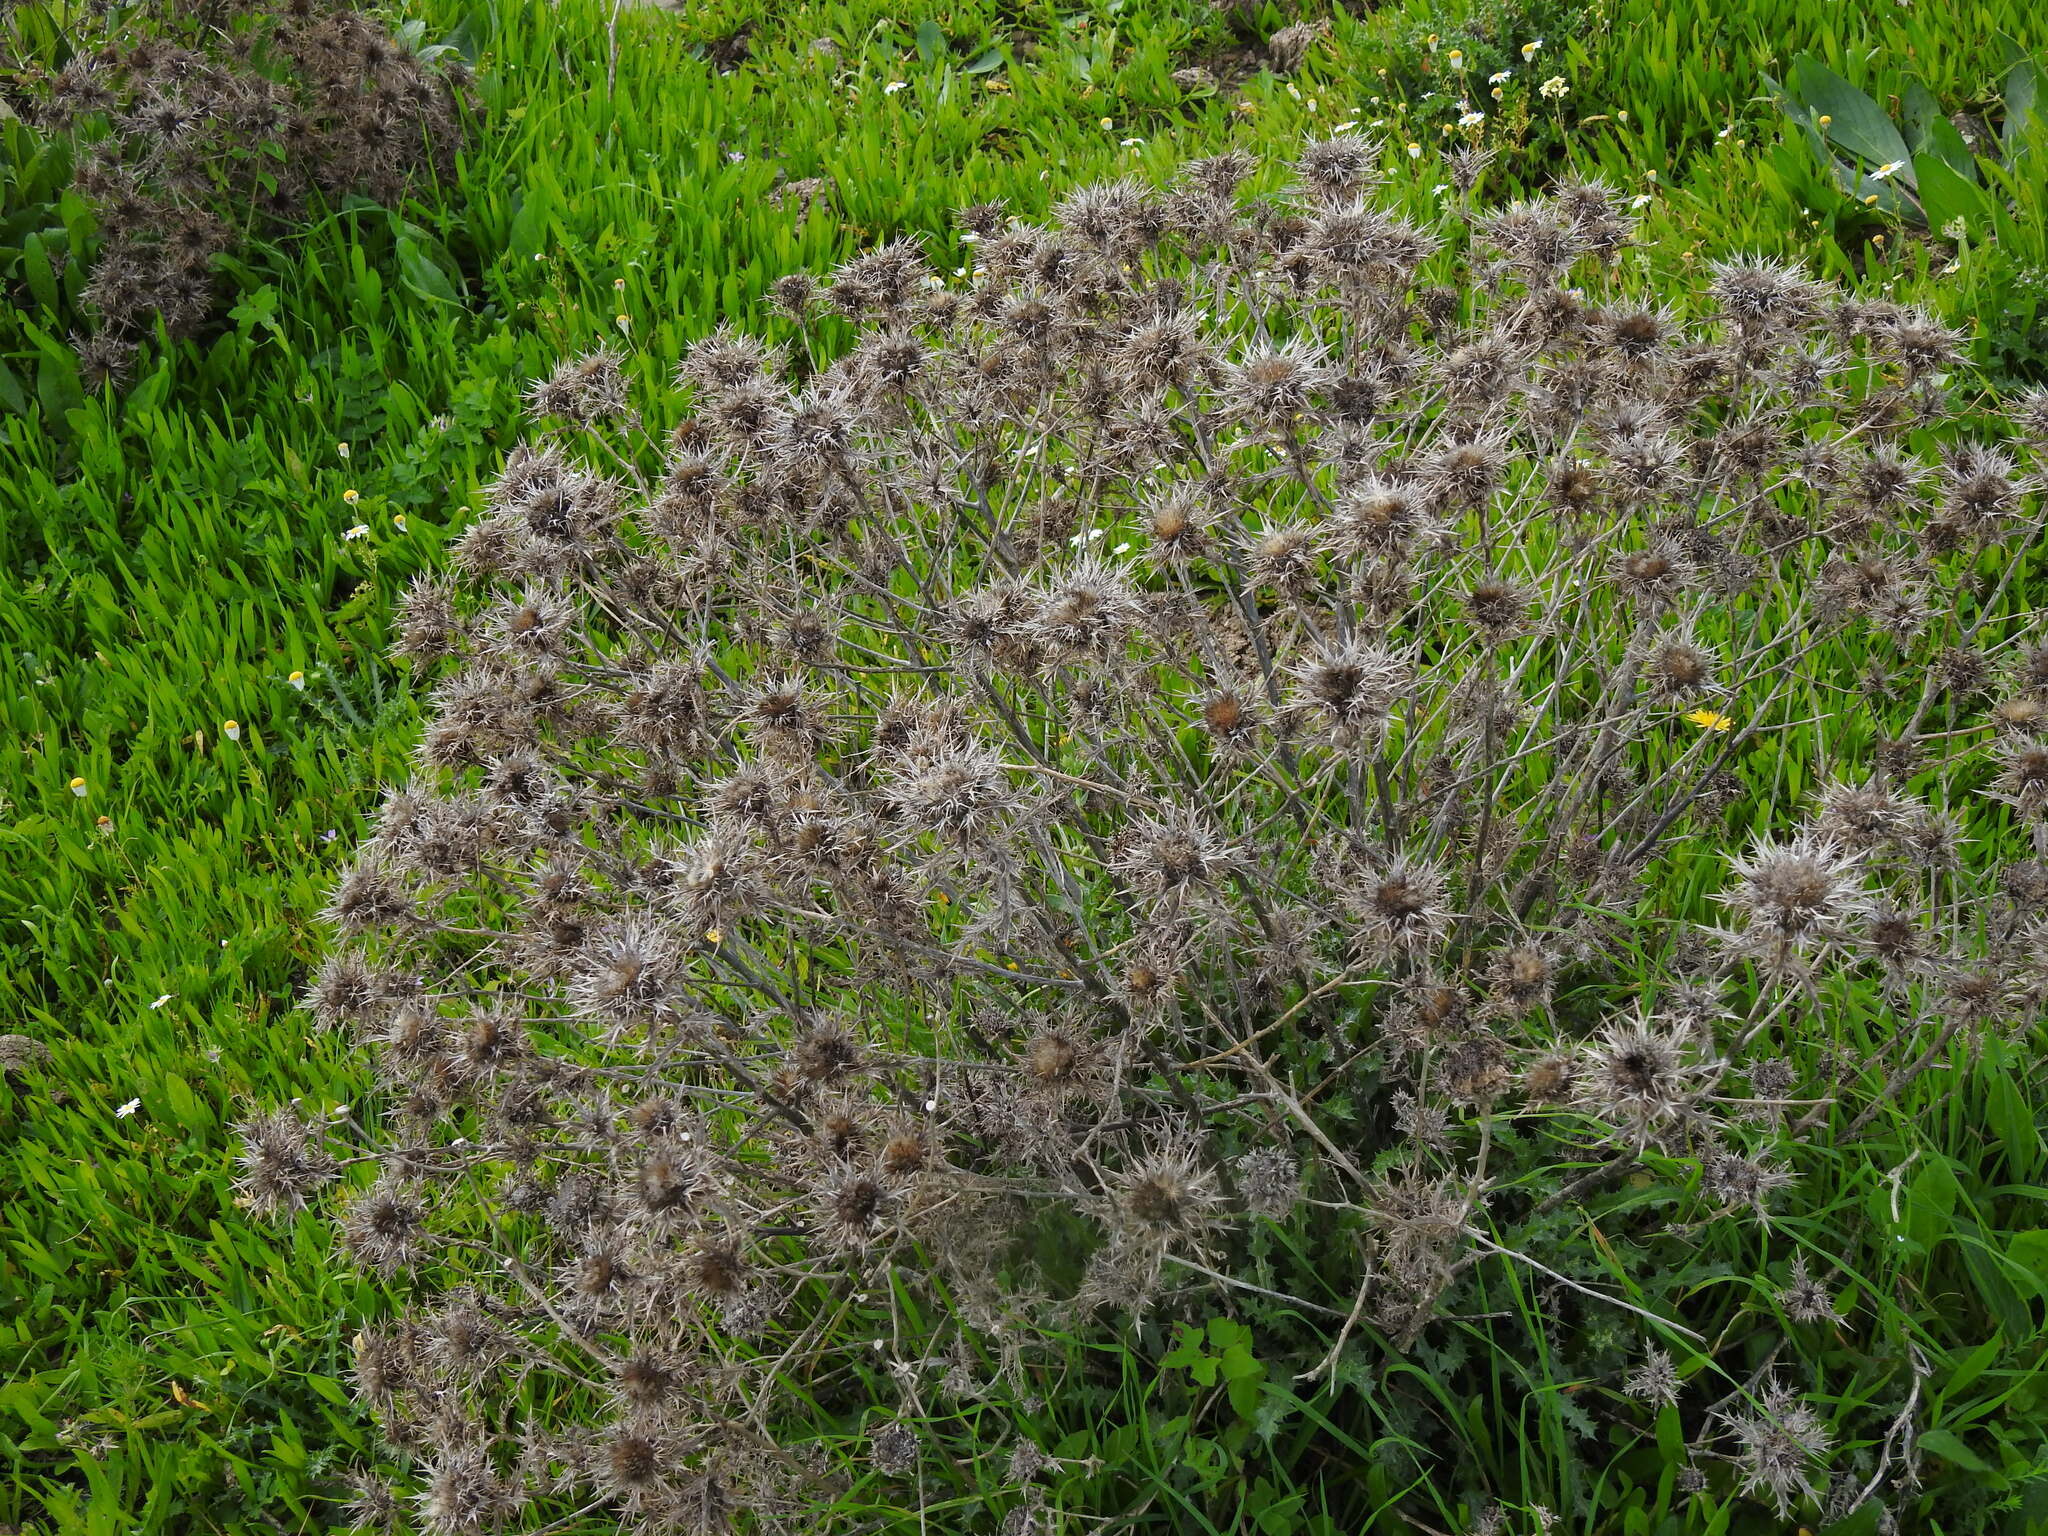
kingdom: Plantae
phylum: Tracheophyta
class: Magnoliopsida
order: Asterales
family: Asteraceae
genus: Carlina
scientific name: Carlina hispanica
